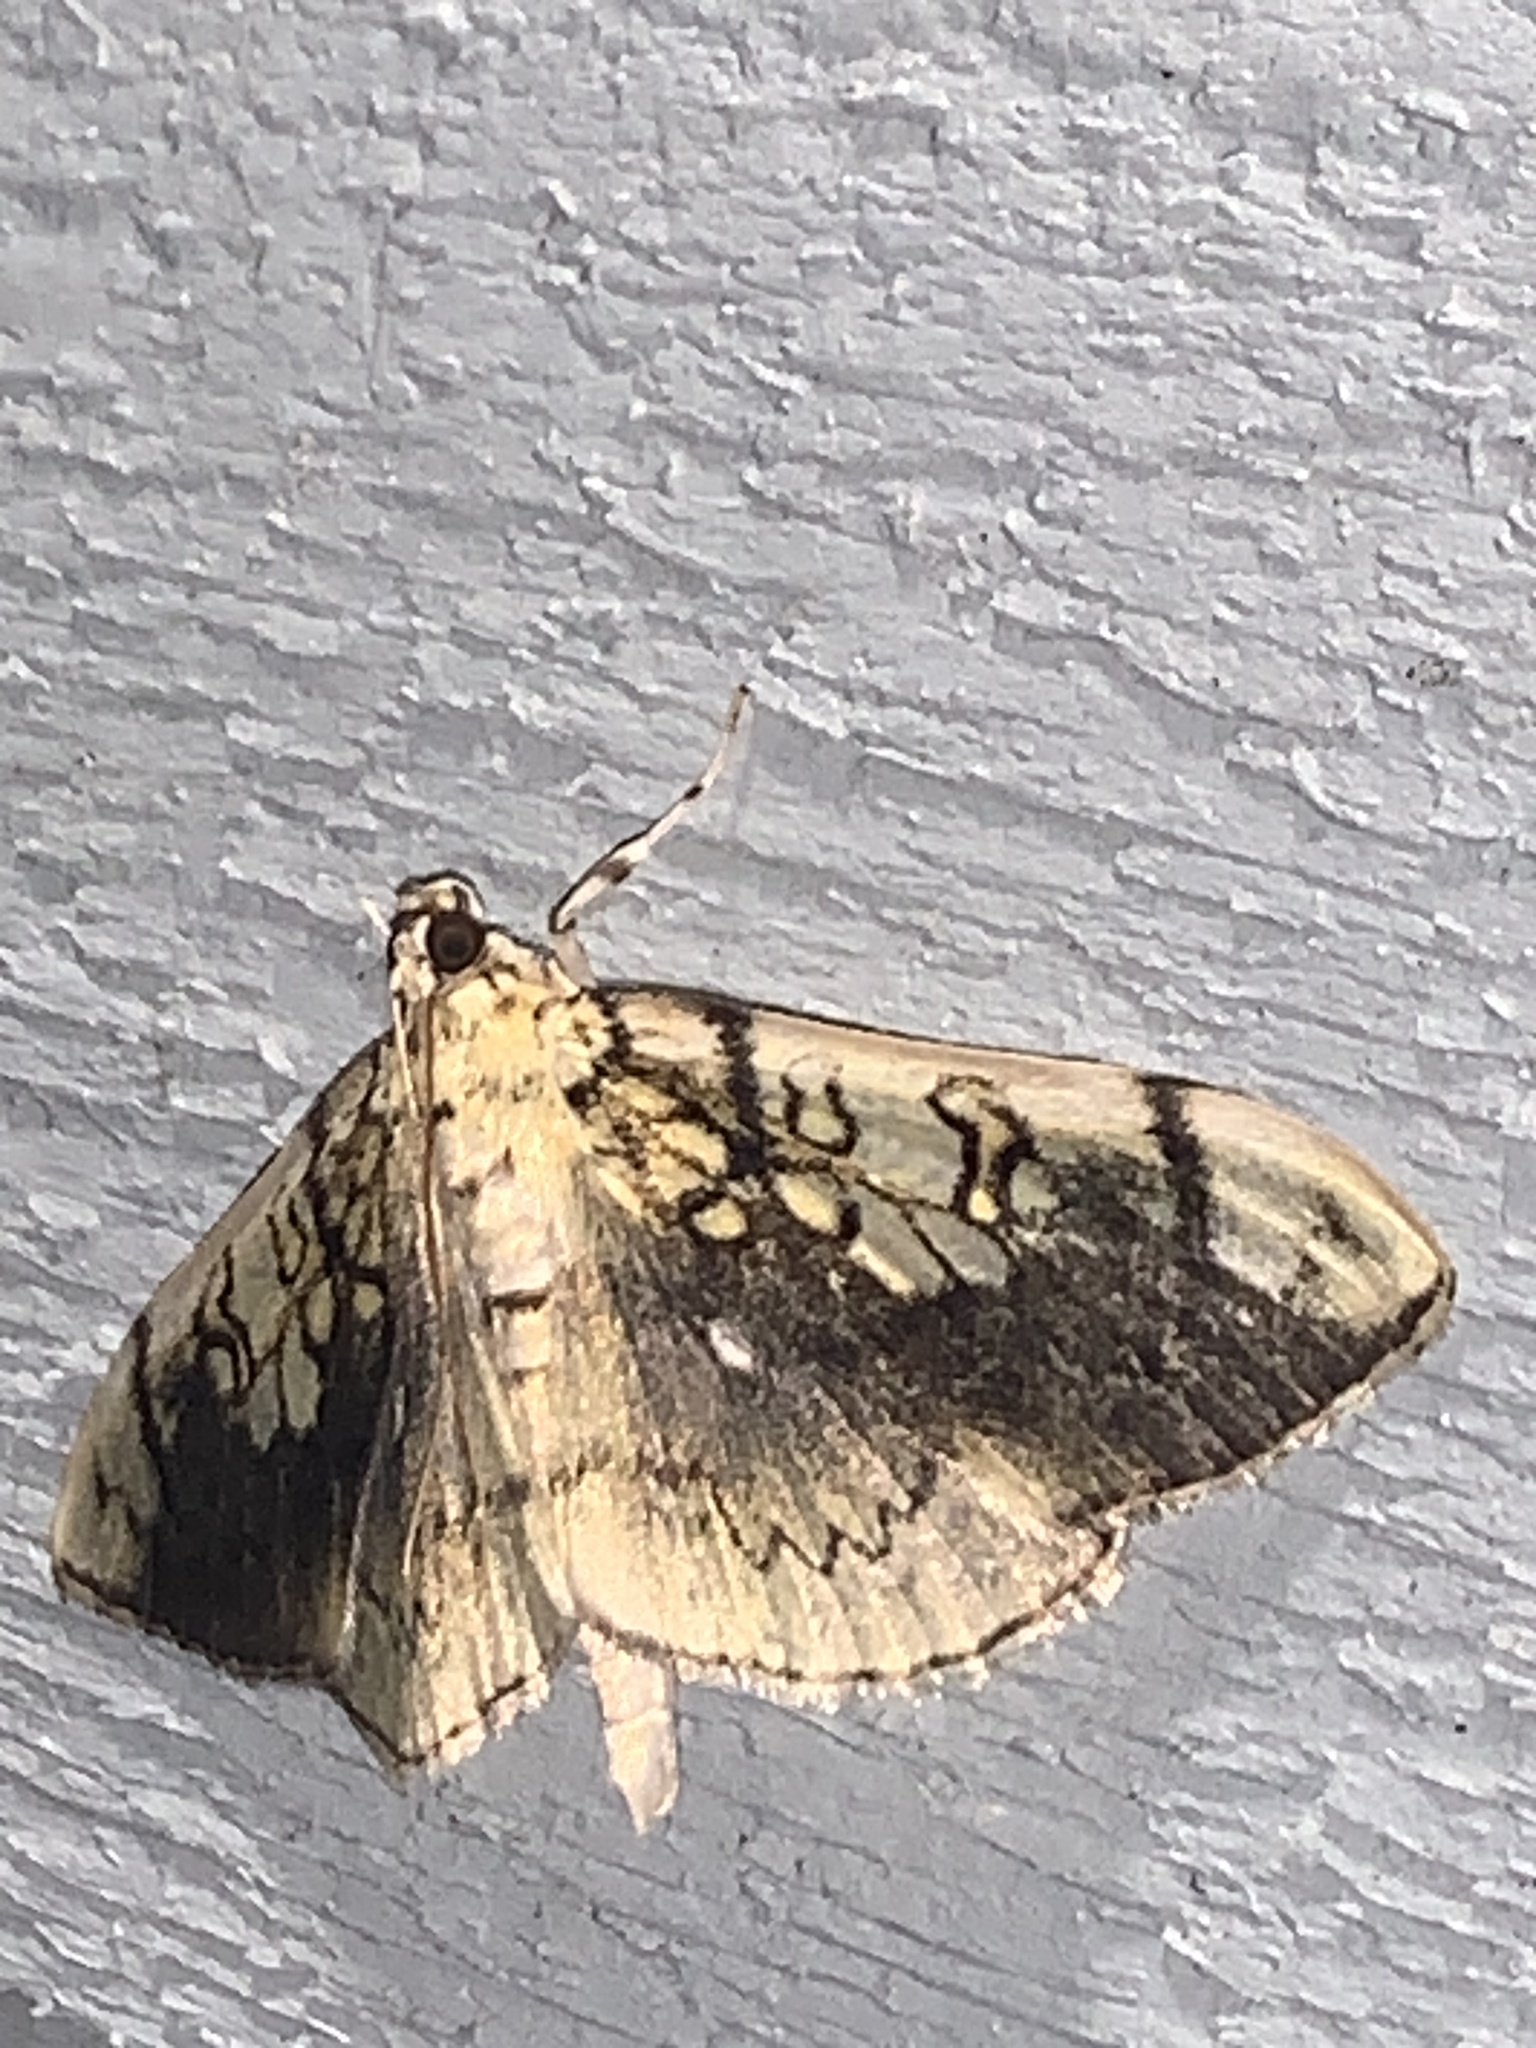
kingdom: Animalia
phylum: Arthropoda
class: Insecta
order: Lepidoptera
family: Crambidae
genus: Pantographa
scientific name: Pantographa limata
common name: Basswood leafroller moth
